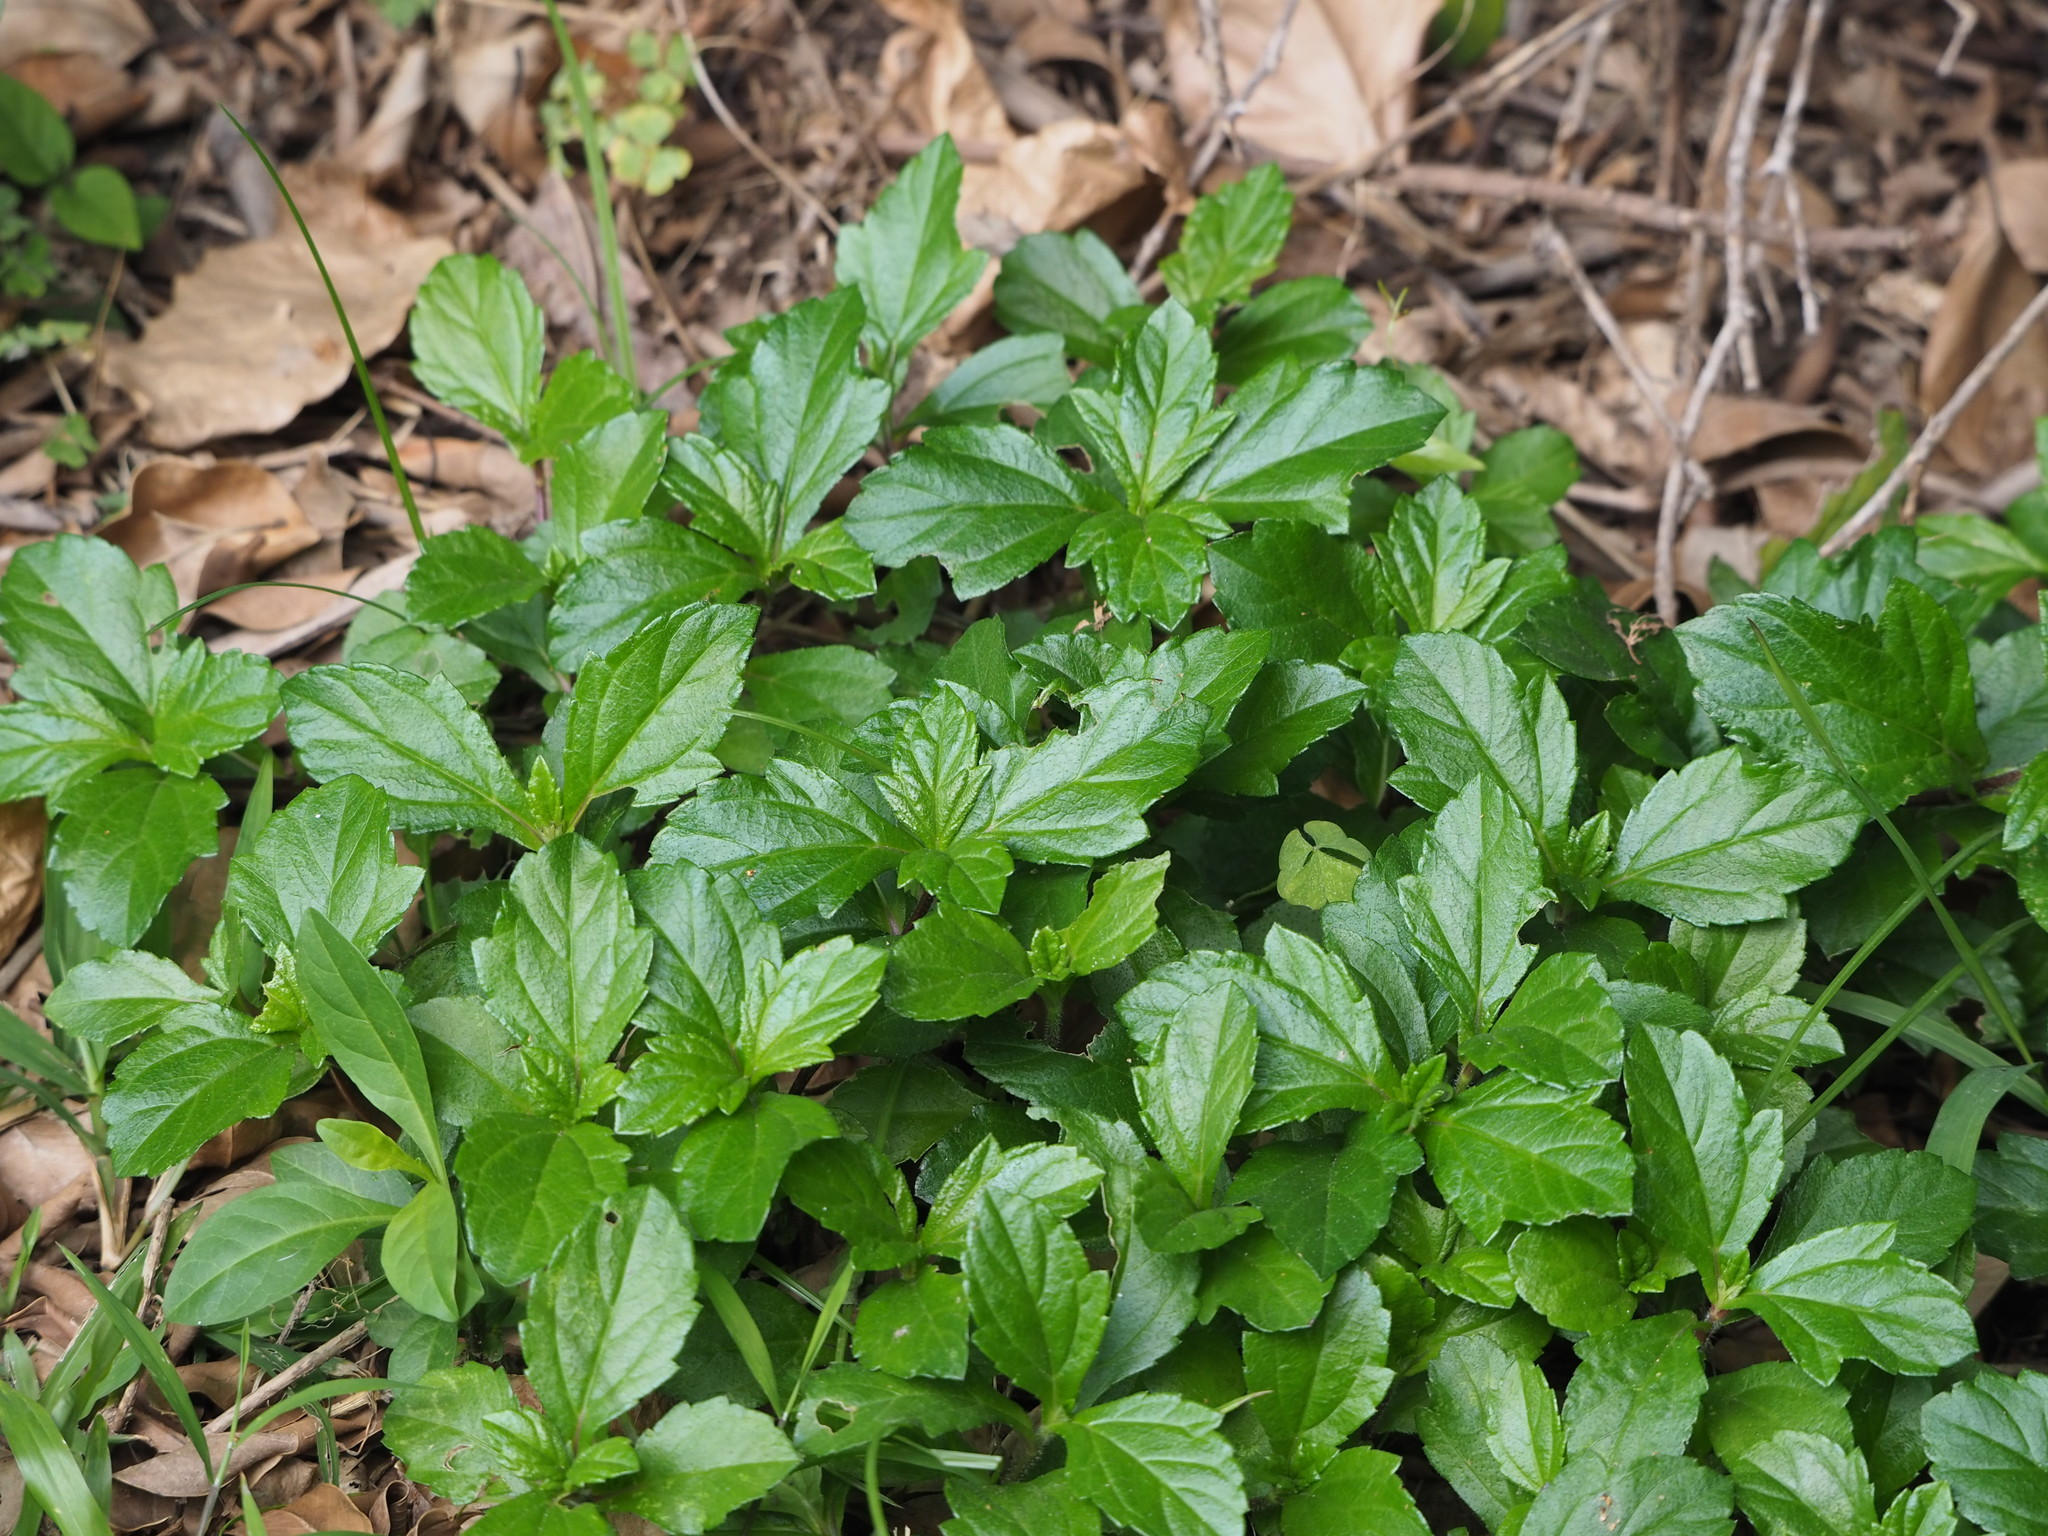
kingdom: Plantae
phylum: Tracheophyta
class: Magnoliopsida
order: Asterales
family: Asteraceae
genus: Sphagneticola
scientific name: Sphagneticola trilobata
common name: Bay biscayne creeping-oxeye
